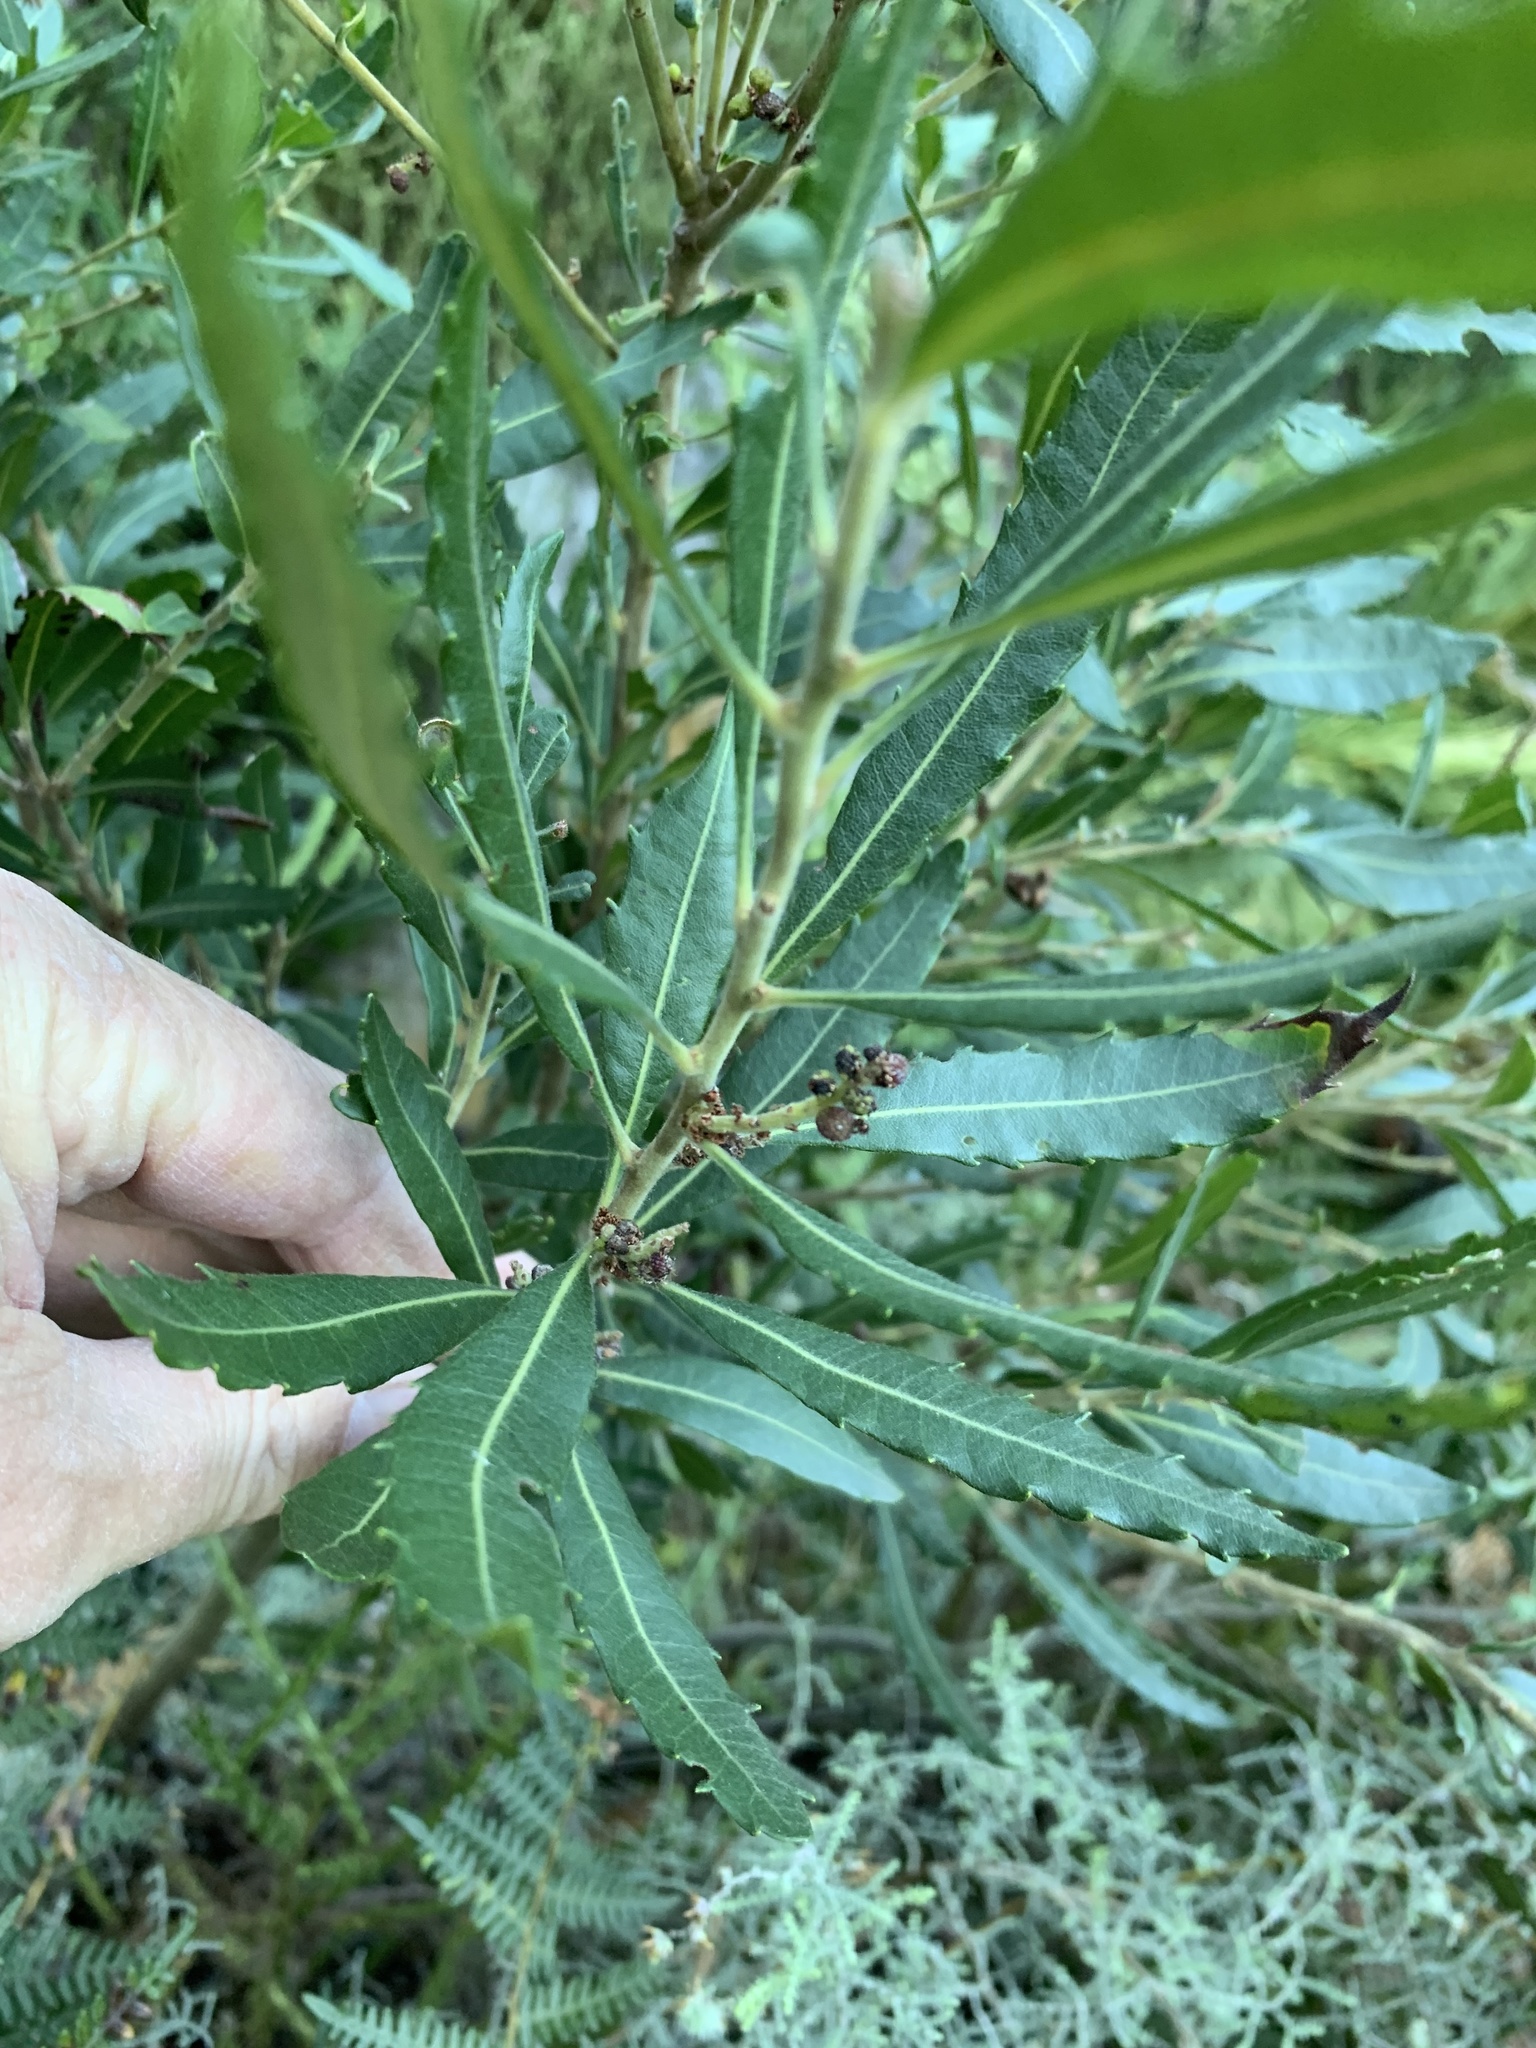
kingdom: Plantae
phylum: Tracheophyta
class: Magnoliopsida
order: Fagales
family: Myricaceae
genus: Morella
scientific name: Morella serrata
